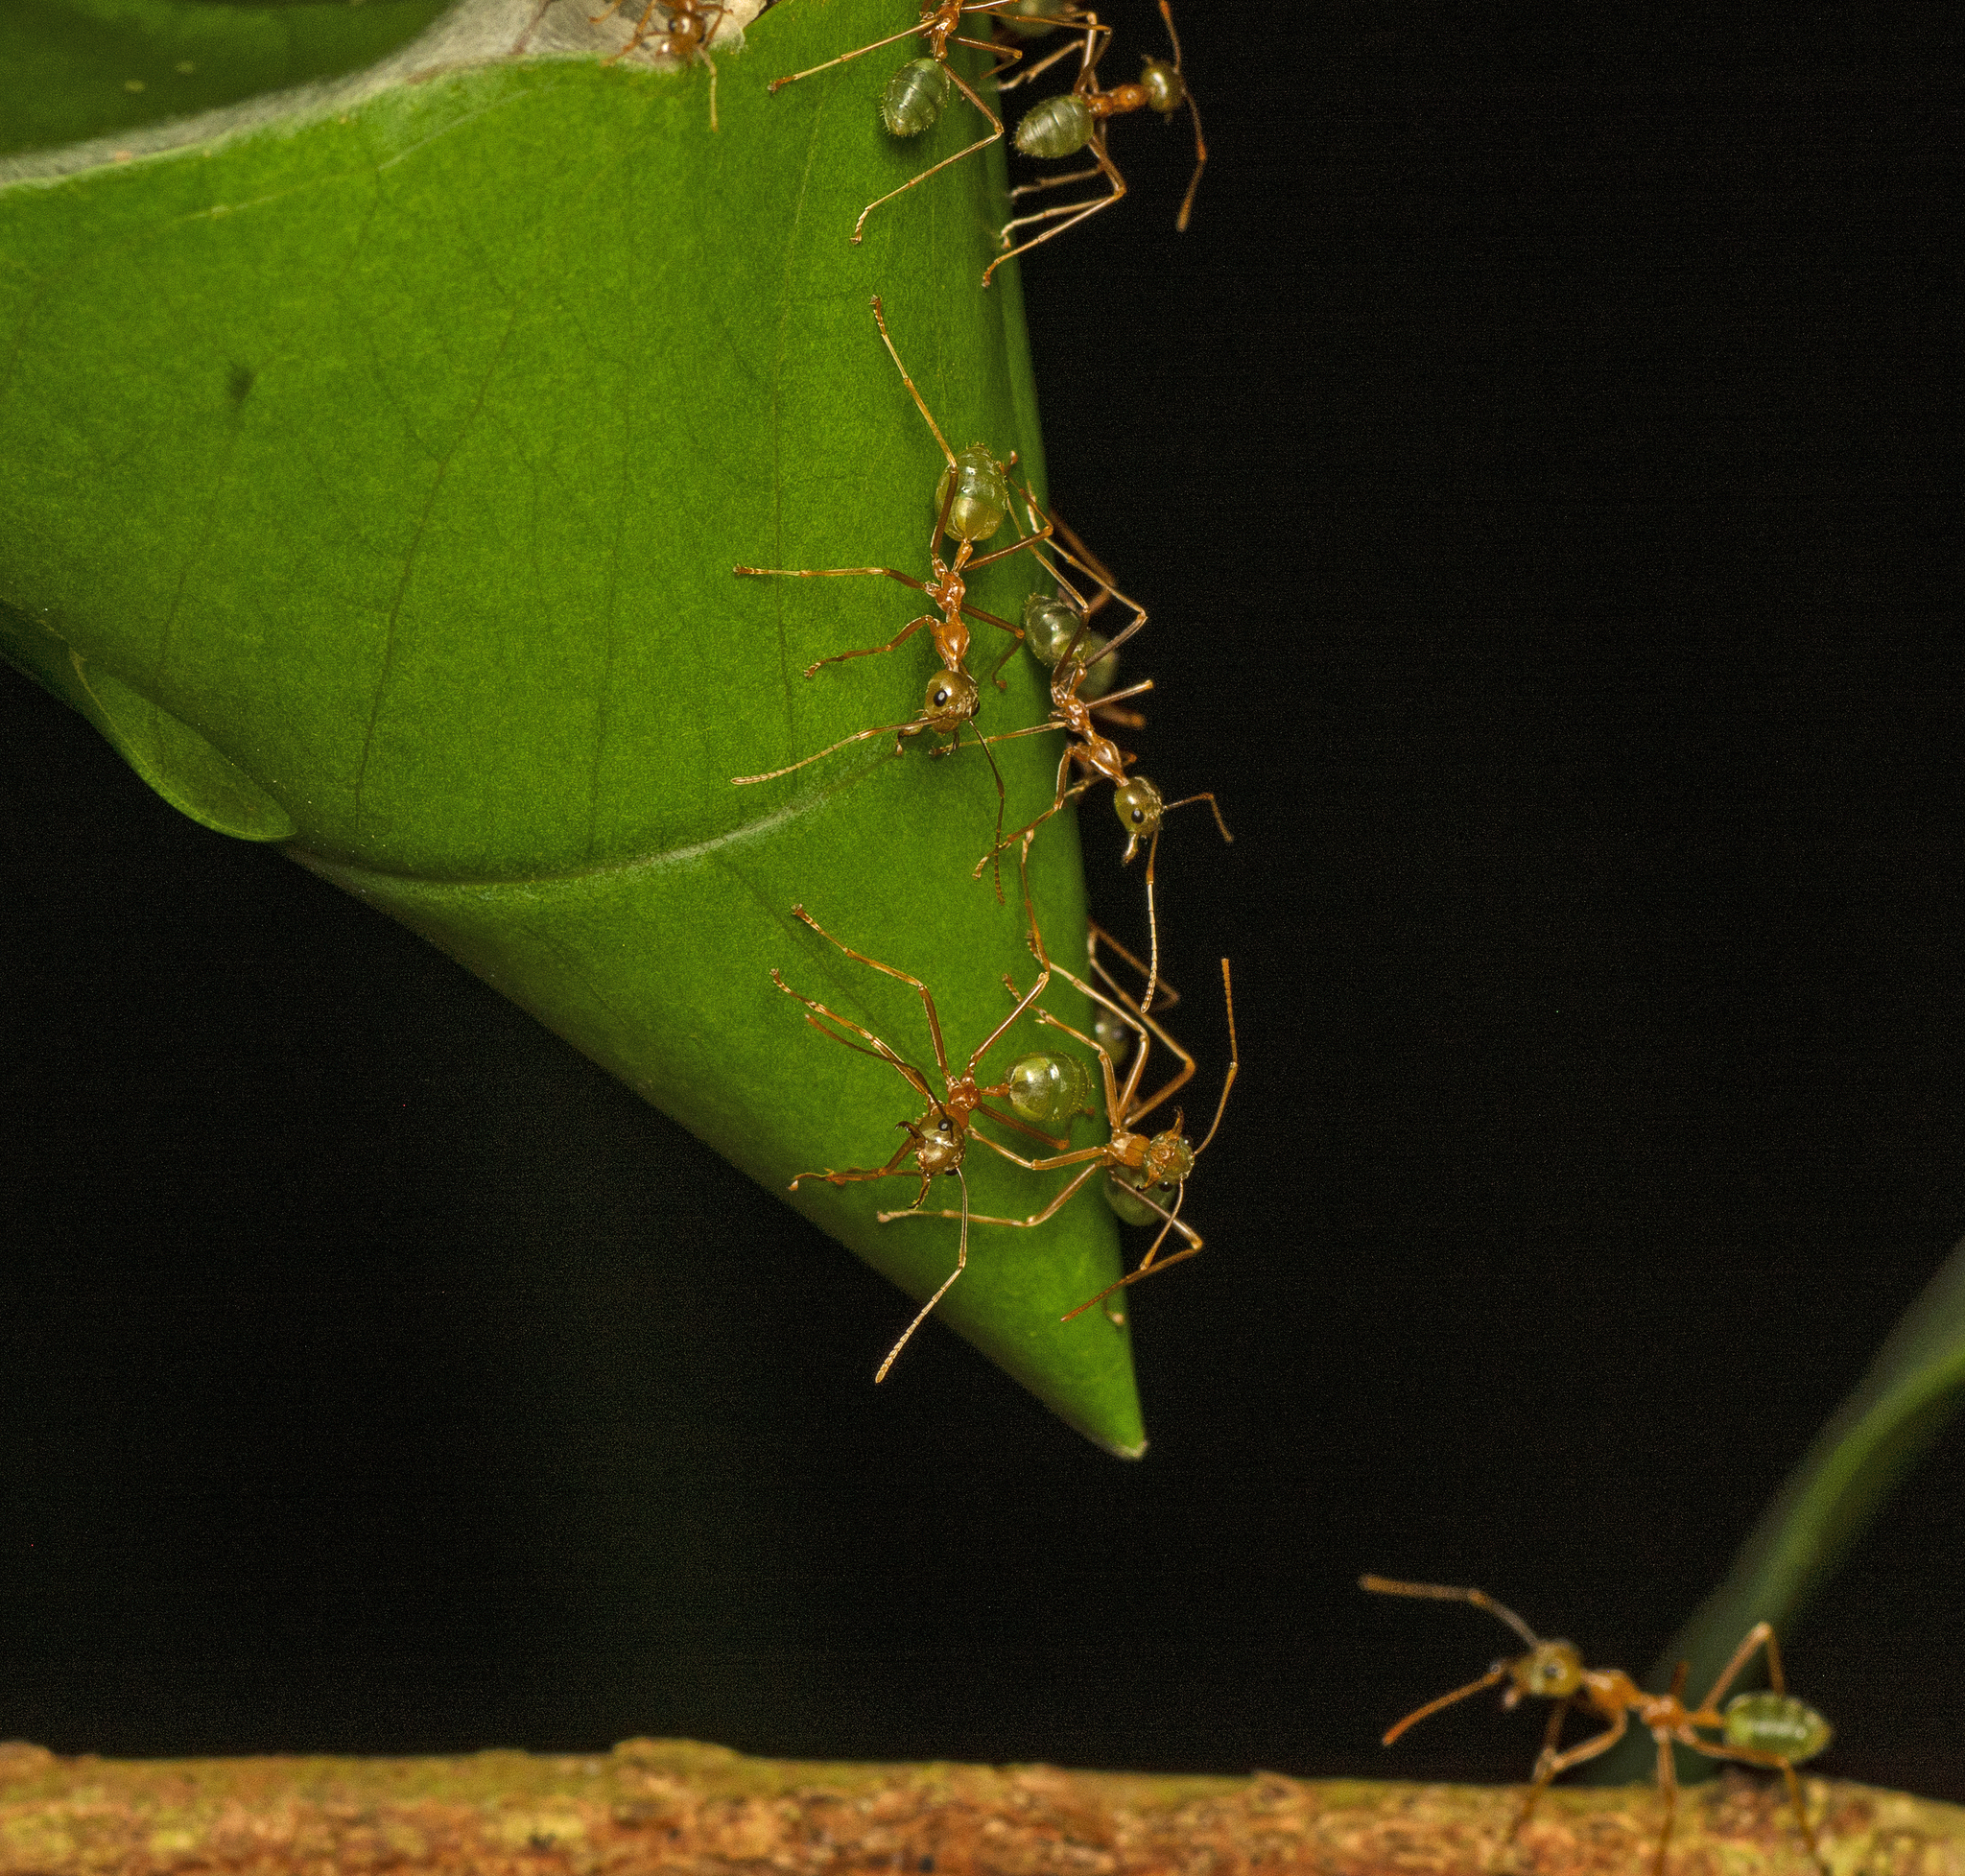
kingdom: Animalia
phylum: Arthropoda
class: Insecta
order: Hymenoptera
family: Formicidae
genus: Oecophylla
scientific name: Oecophylla smaragdina
